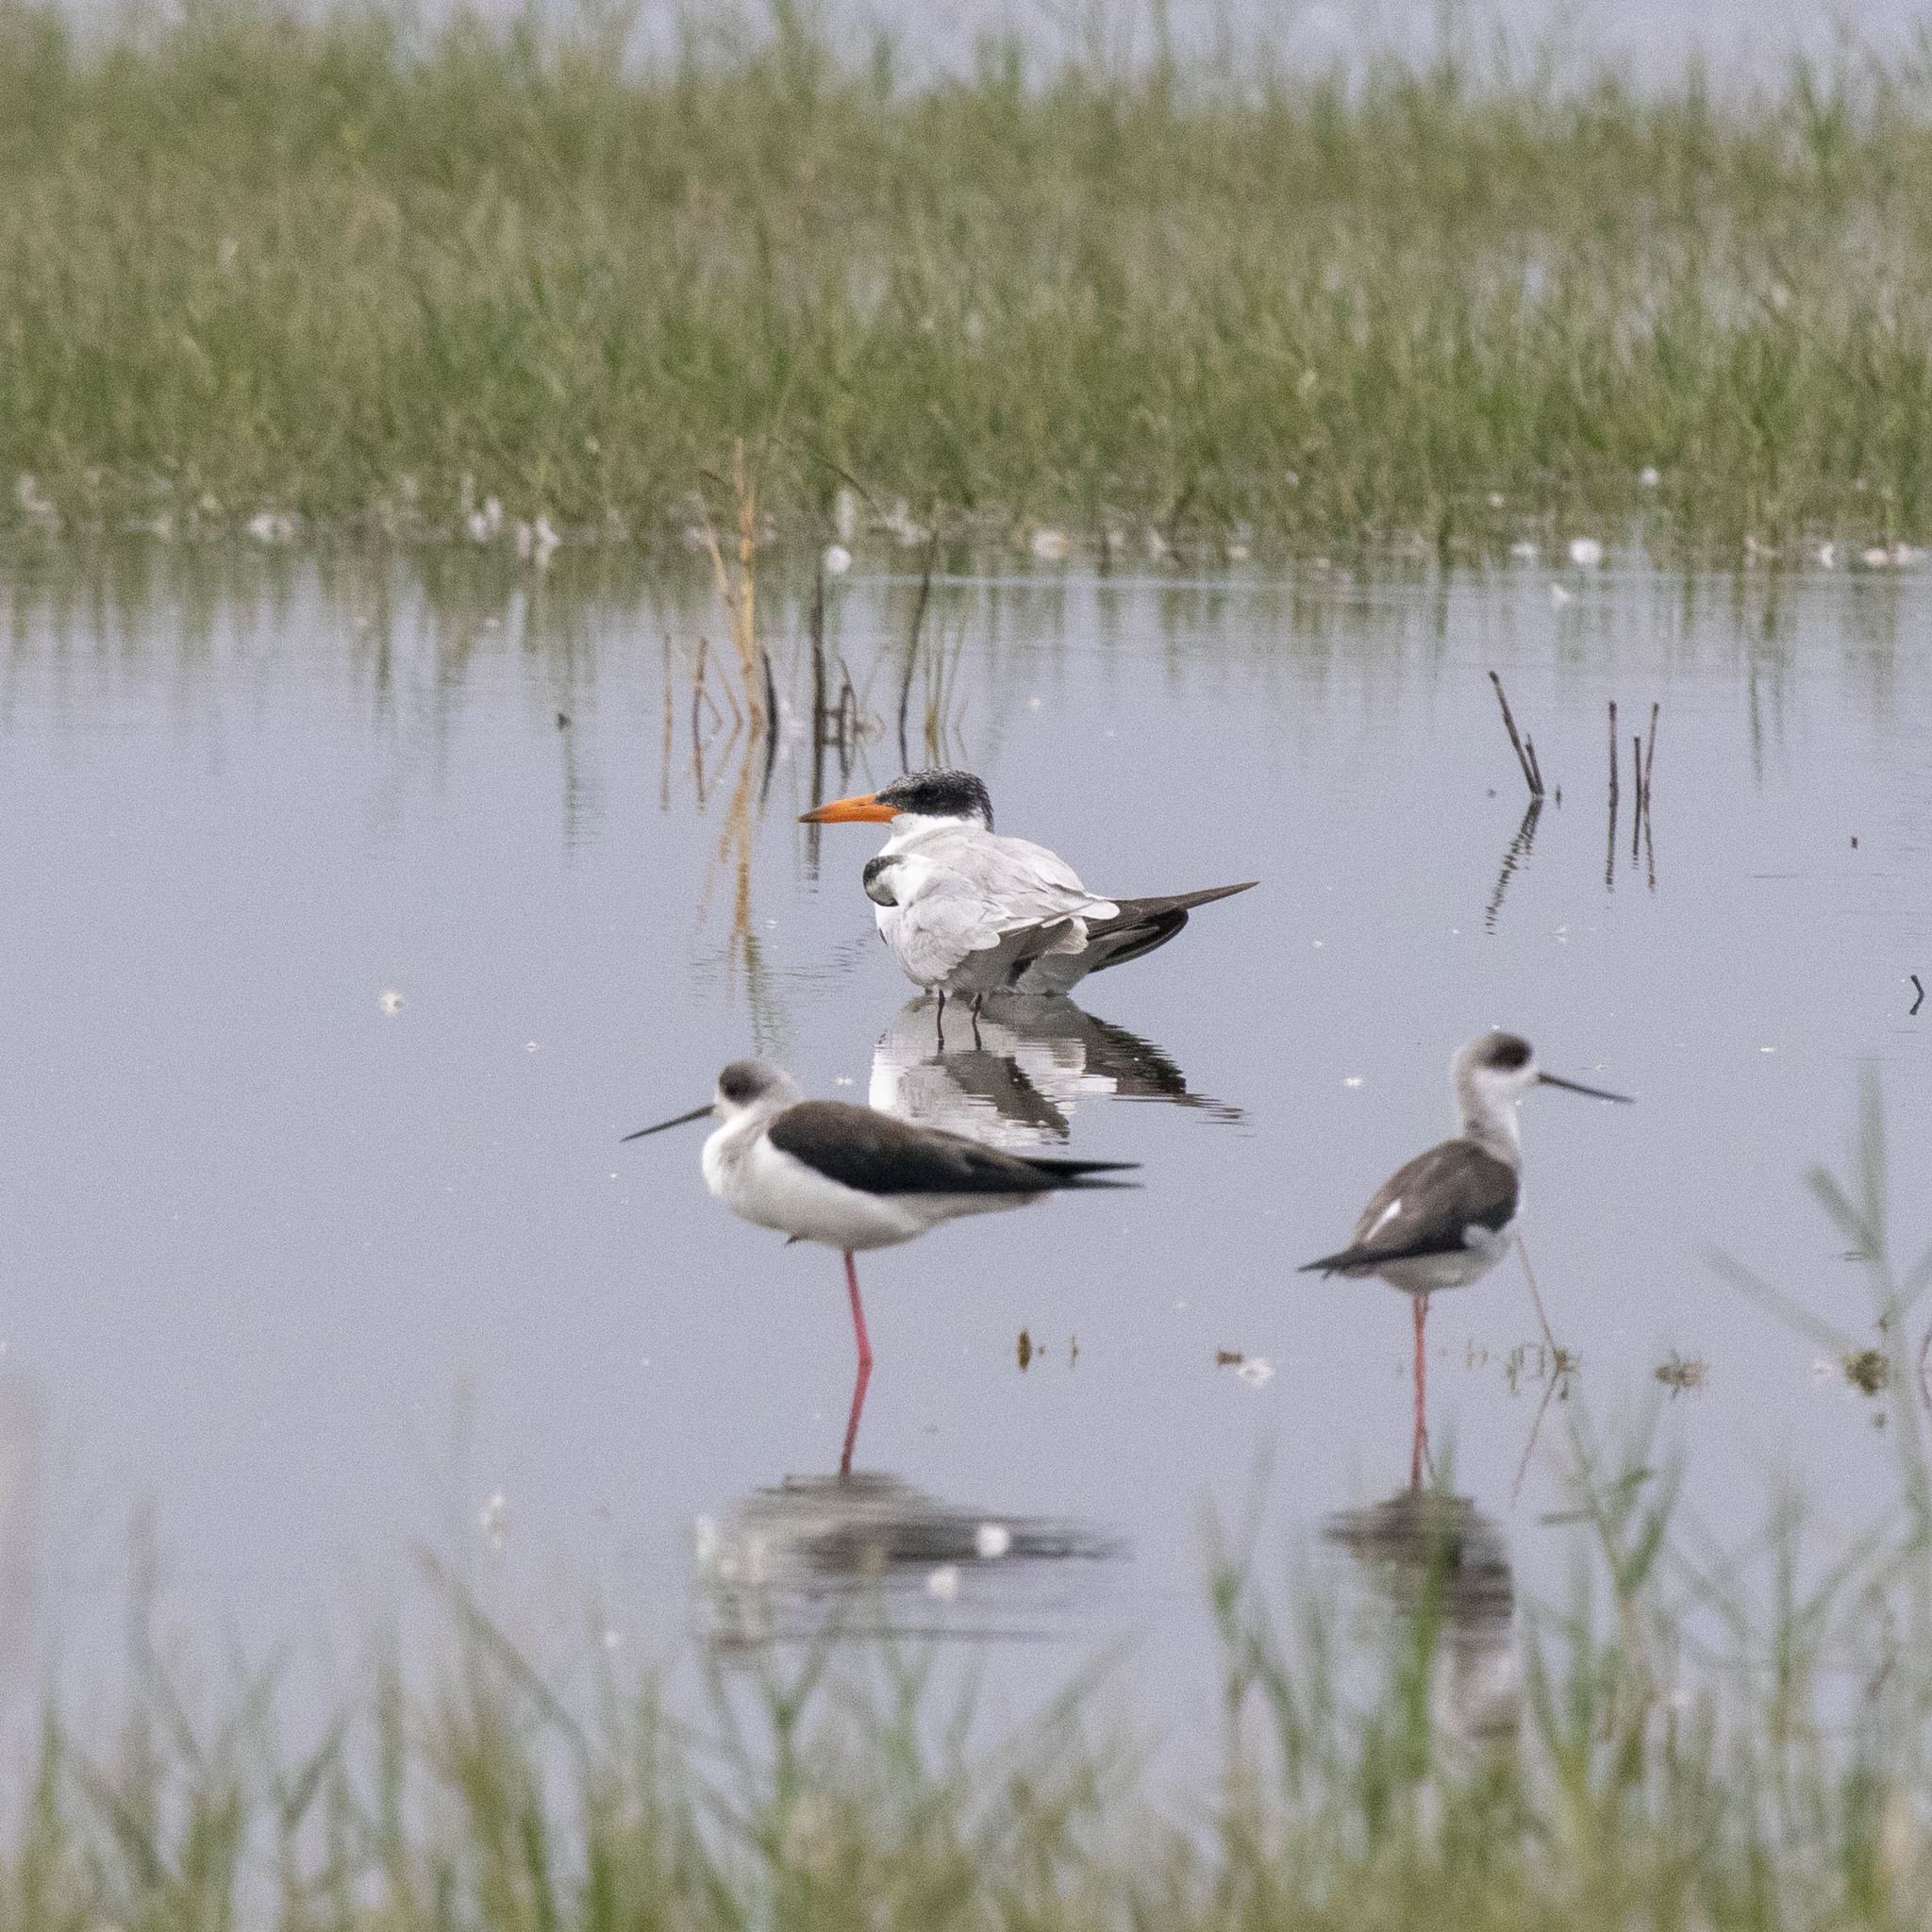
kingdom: Animalia
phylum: Chordata
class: Aves
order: Charadriiformes
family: Laridae
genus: Hydroprogne
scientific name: Hydroprogne caspia
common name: Caspian tern
